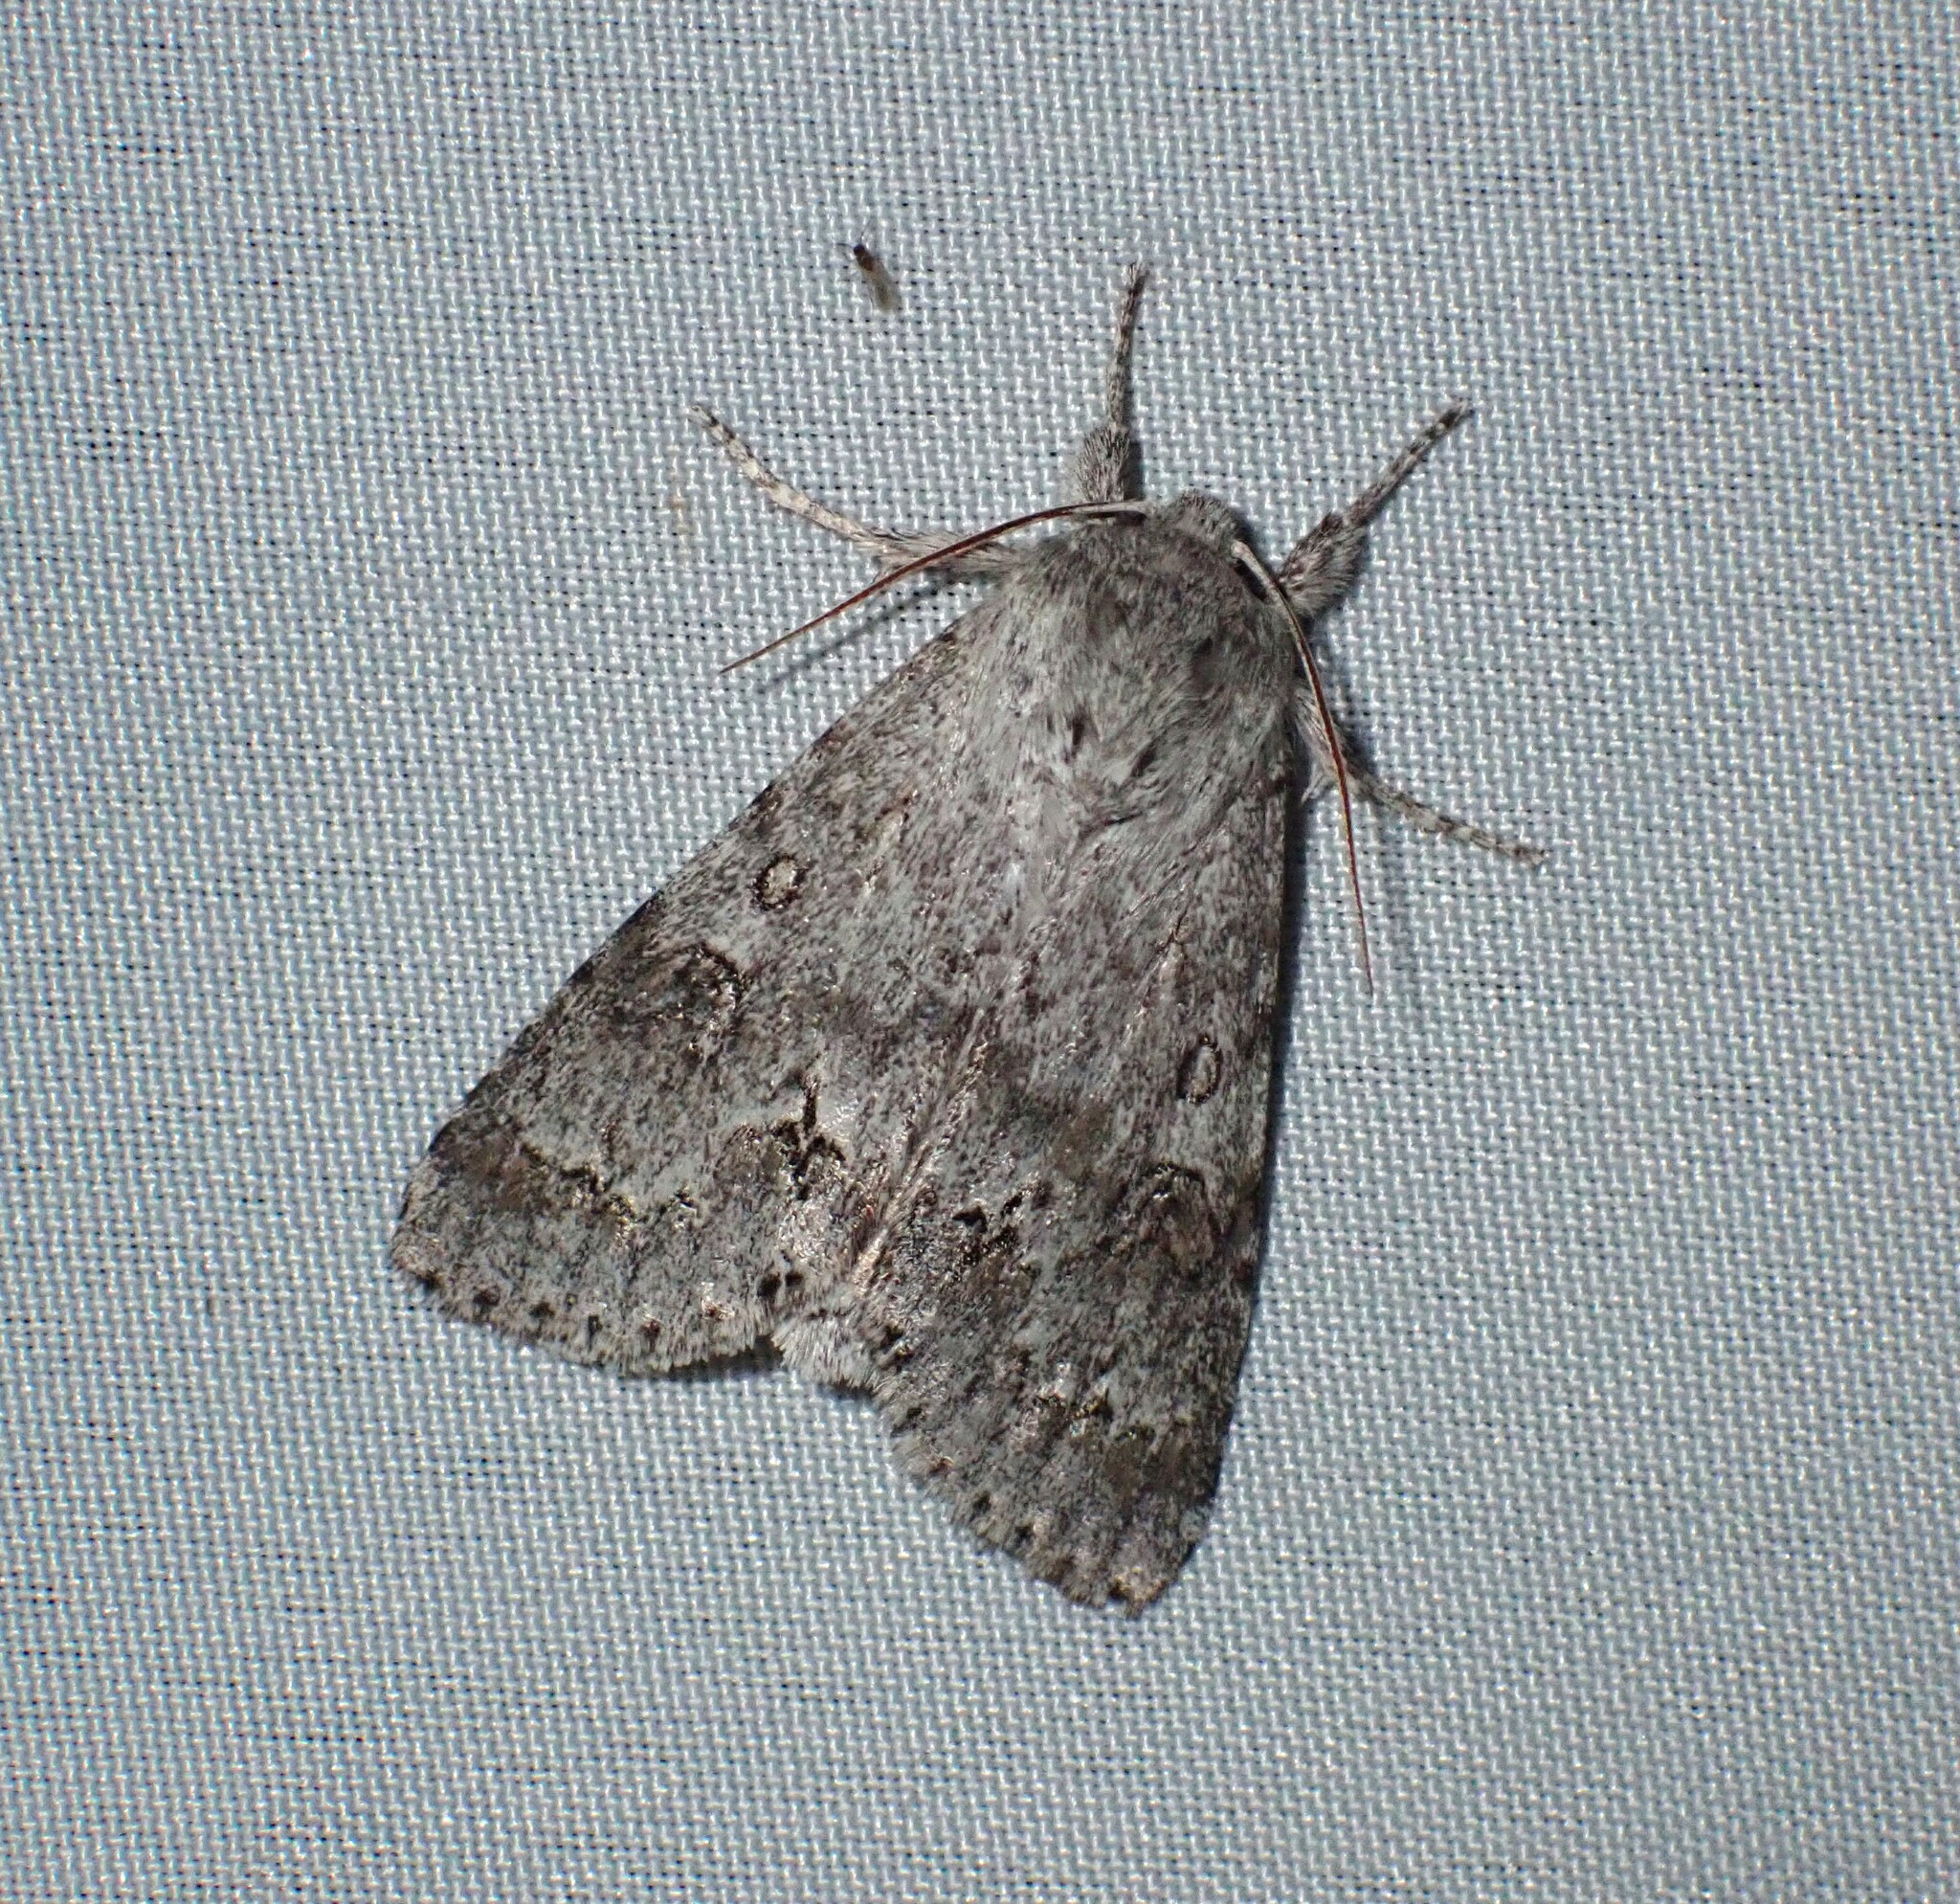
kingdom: Animalia
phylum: Arthropoda
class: Insecta
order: Lepidoptera
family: Noctuidae
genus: Acronicta
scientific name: Acronicta insita
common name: Large gray dagger
